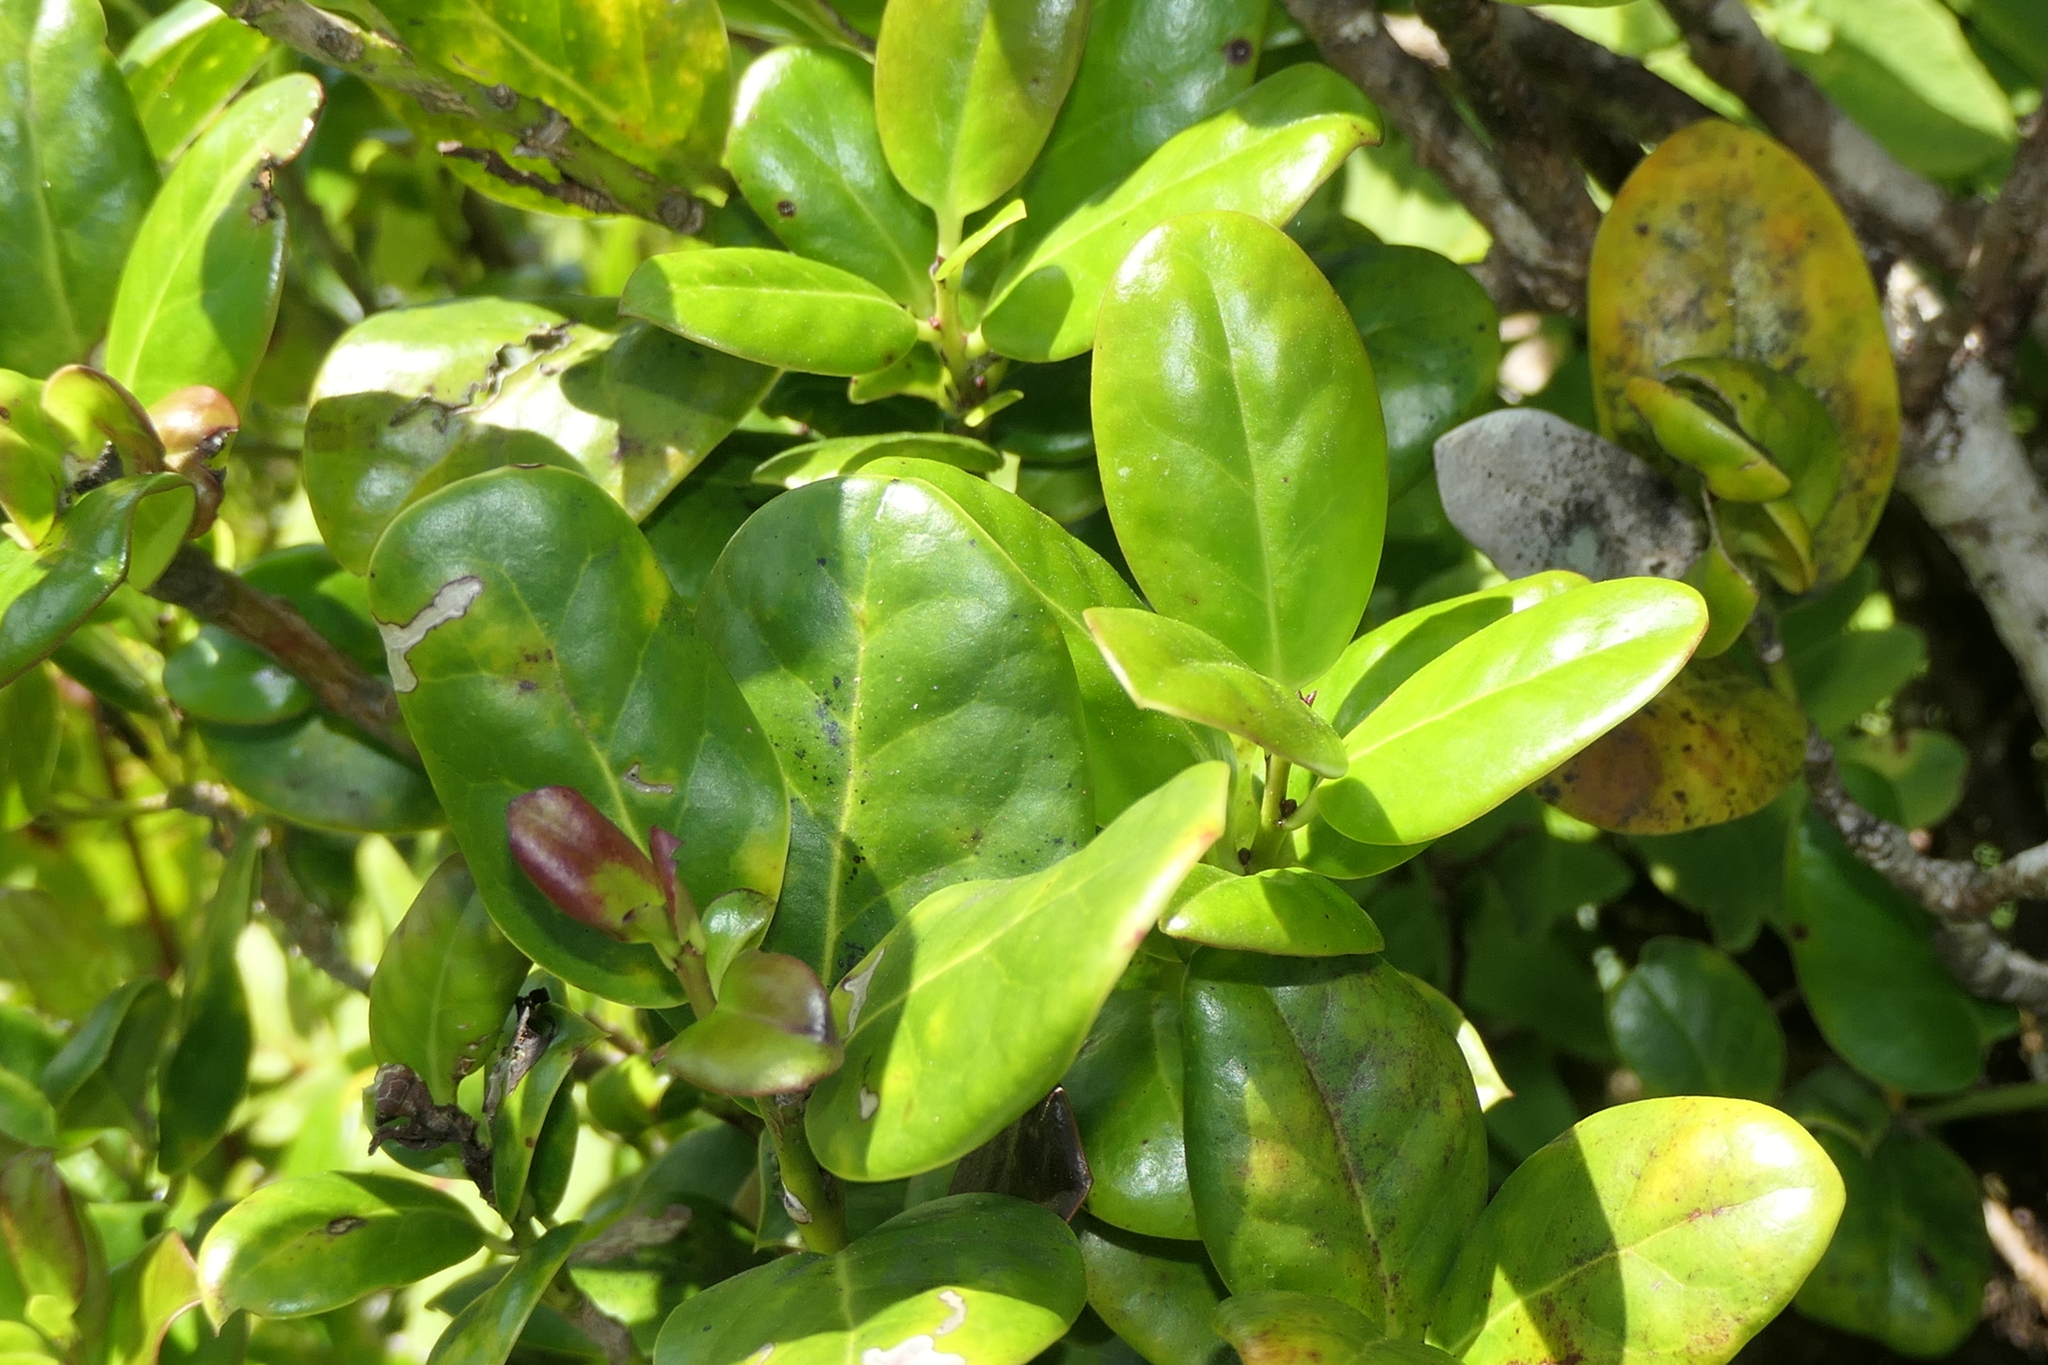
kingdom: Plantae
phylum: Tracheophyta
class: Magnoliopsida
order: Aquifoliales
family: Aquifoliaceae
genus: Ilex
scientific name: Ilex perado
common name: Madeira holly
